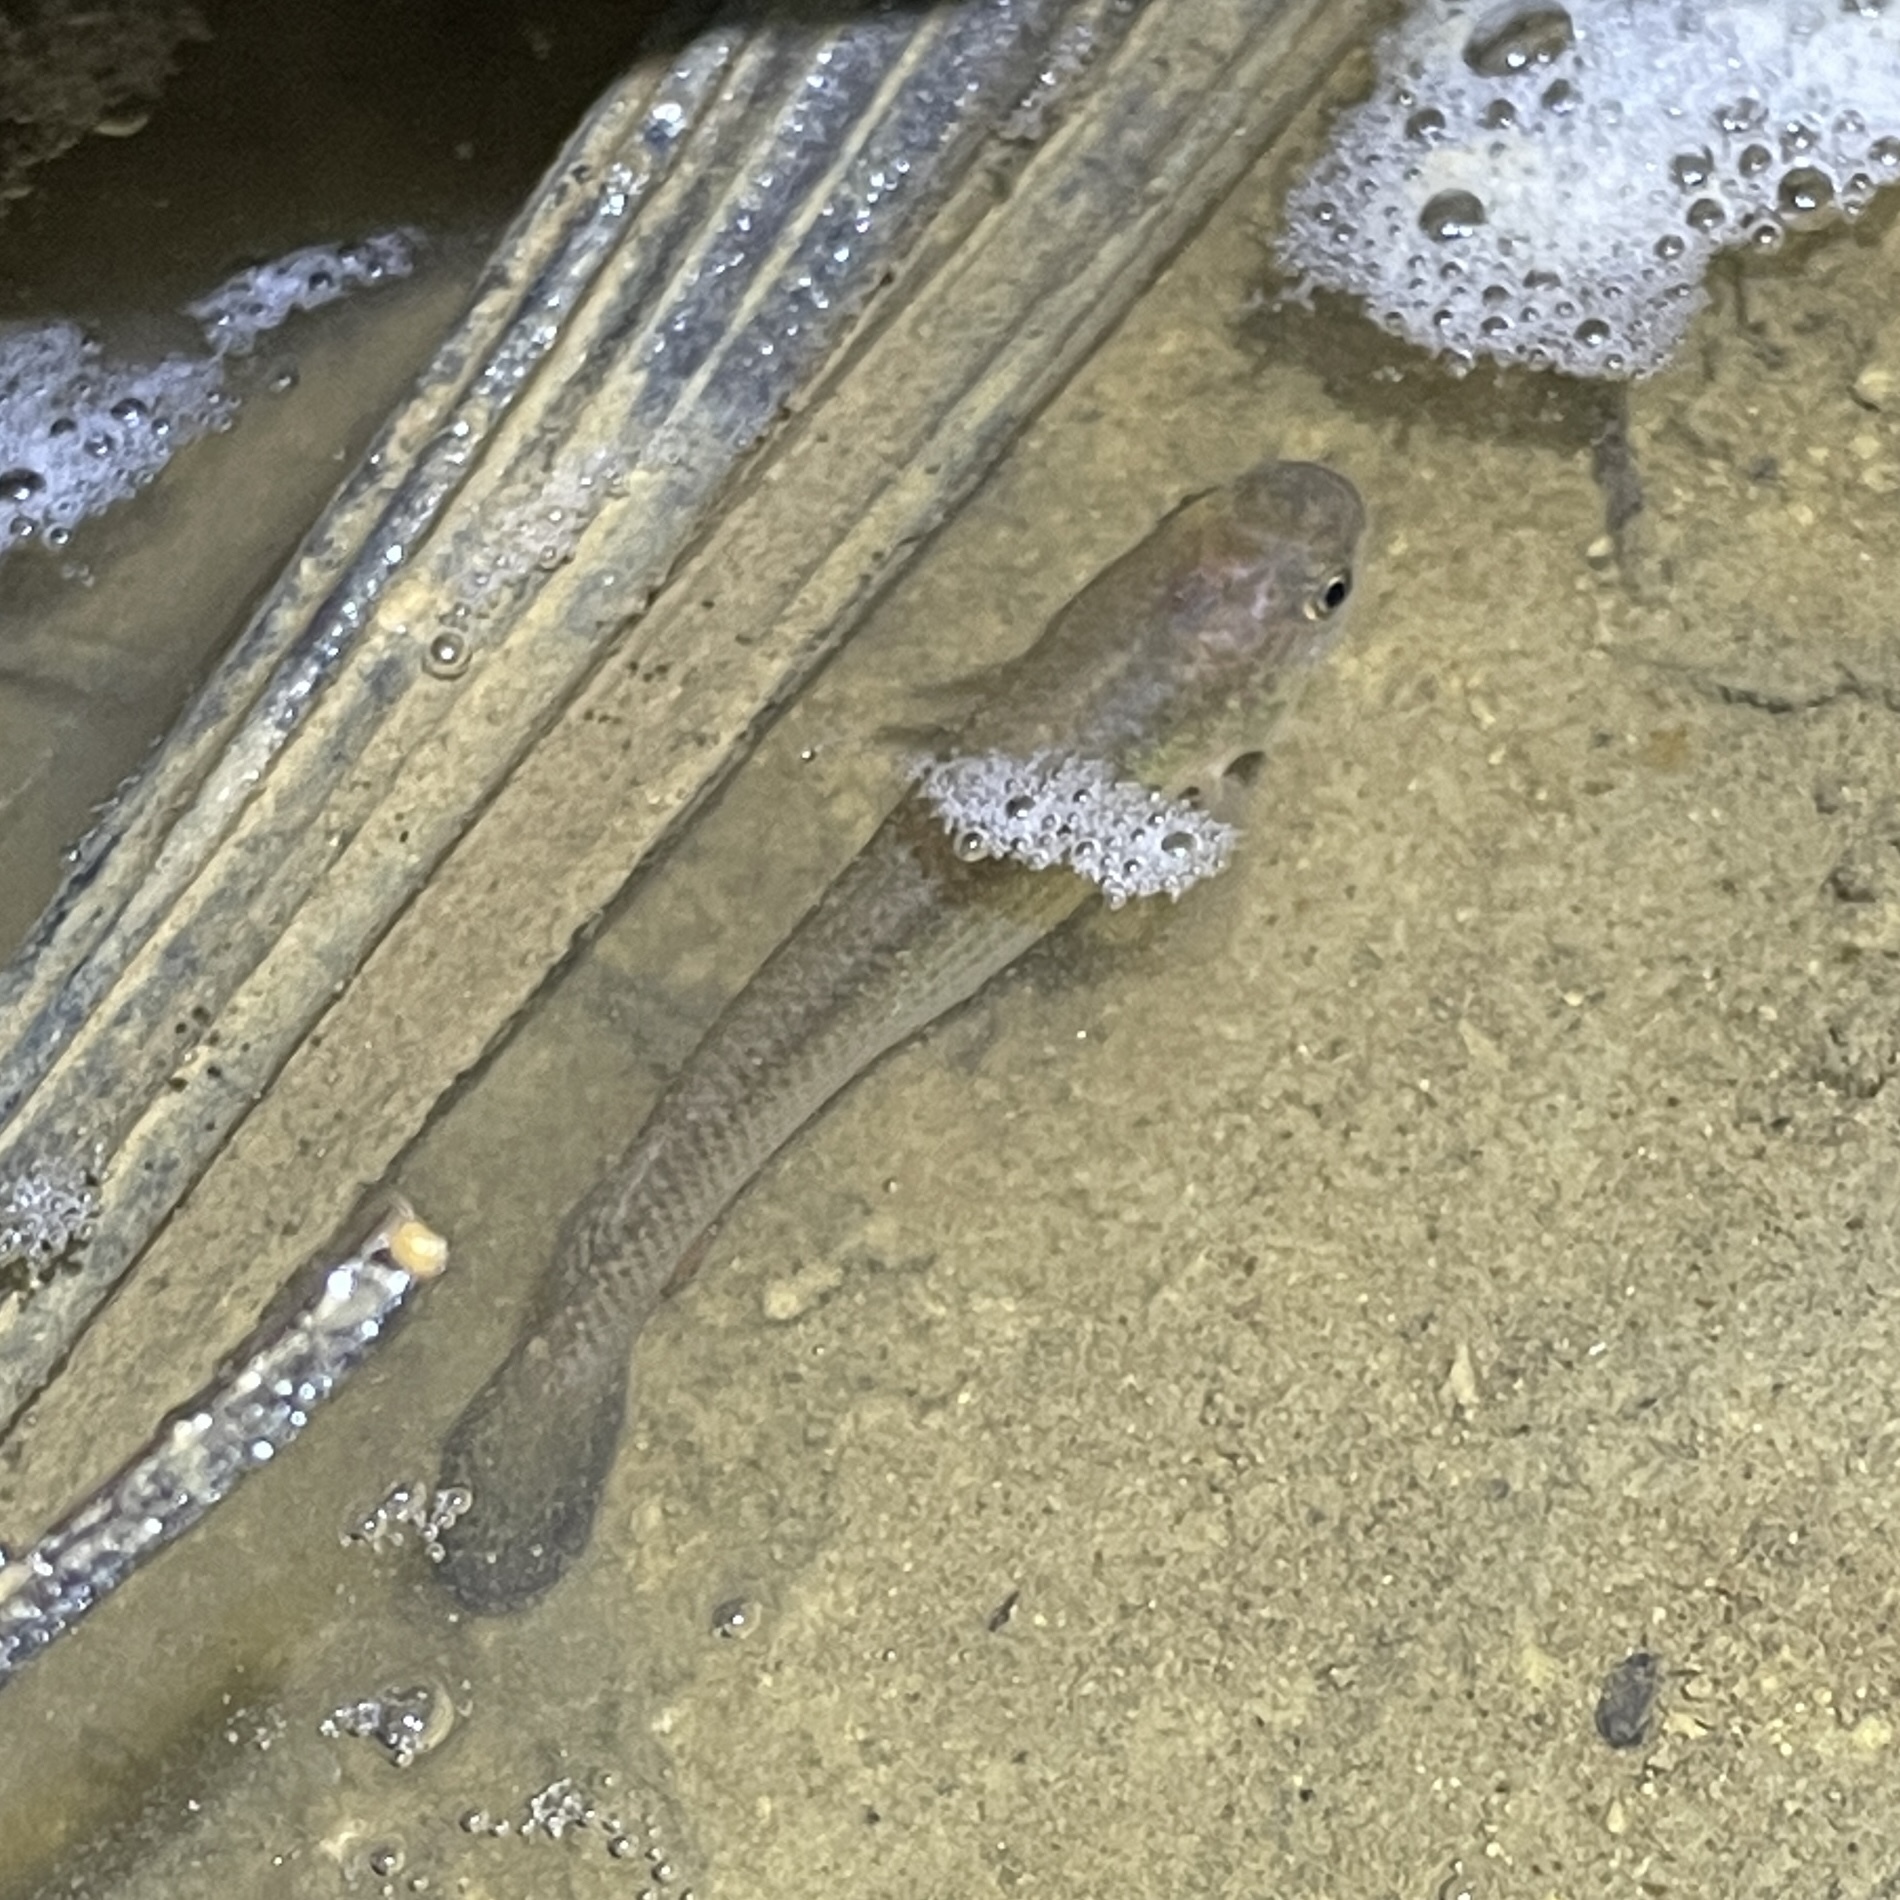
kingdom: Animalia
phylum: Chordata
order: Cyprinodontiformes
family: Rivulidae
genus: Anablepsoides
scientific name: Anablepsoides hartii
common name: Giant rivulus
